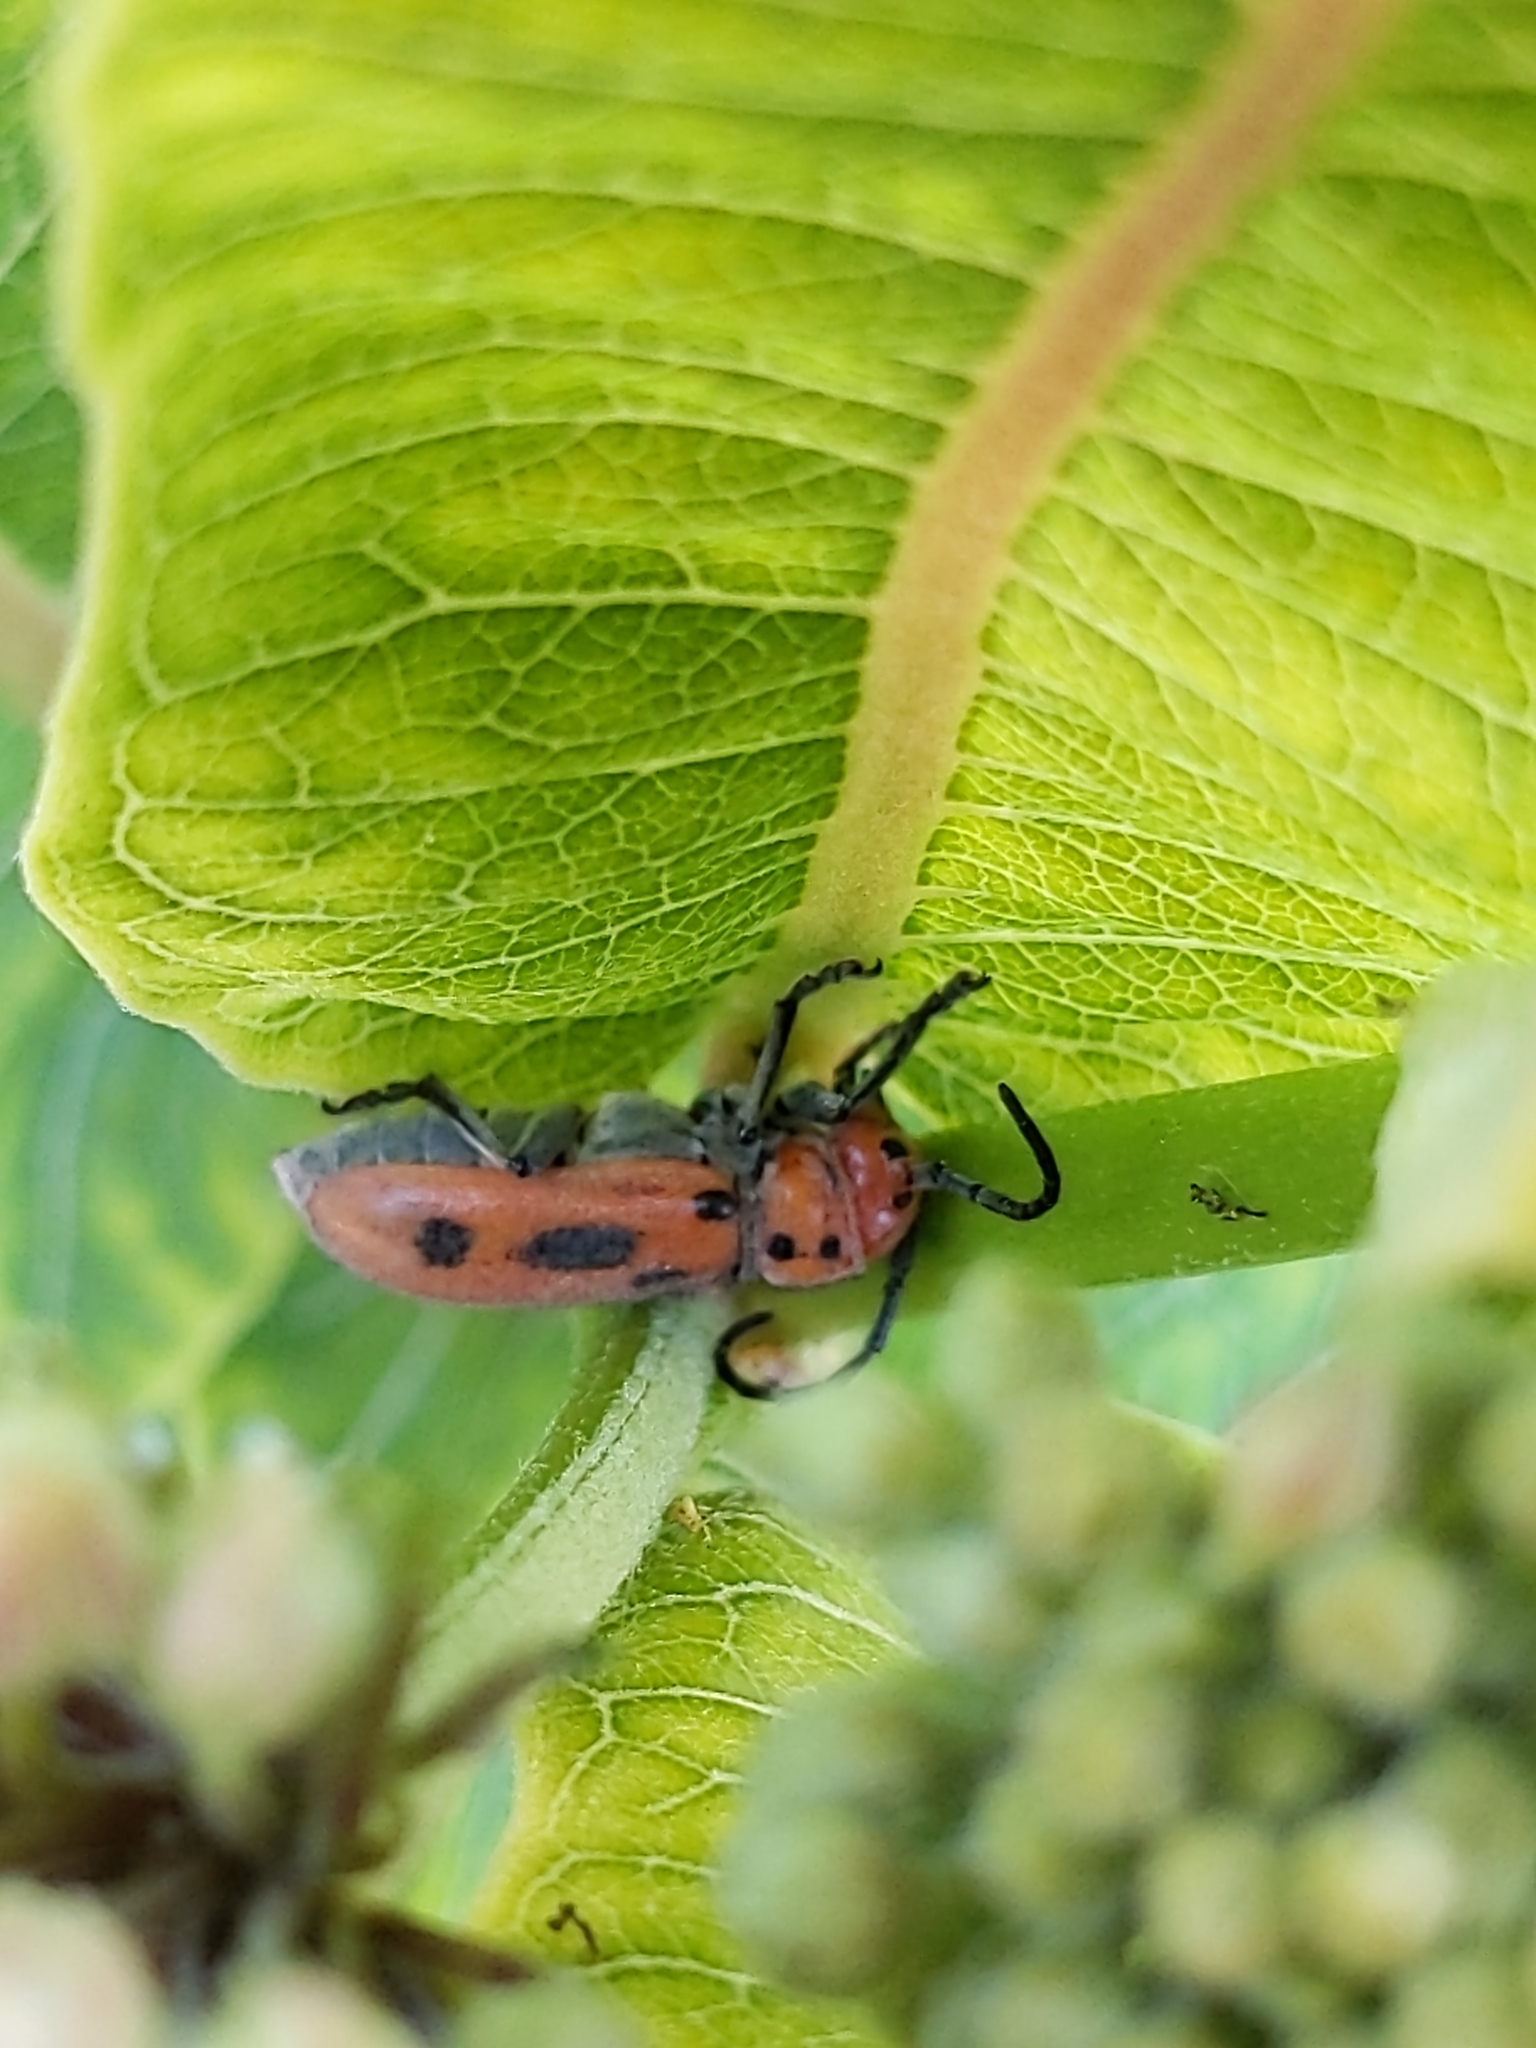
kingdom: Animalia
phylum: Arthropoda
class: Insecta
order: Coleoptera
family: Cerambycidae
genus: Tetraopes
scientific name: Tetraopes tetrophthalmus
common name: Red milkweed beetle
